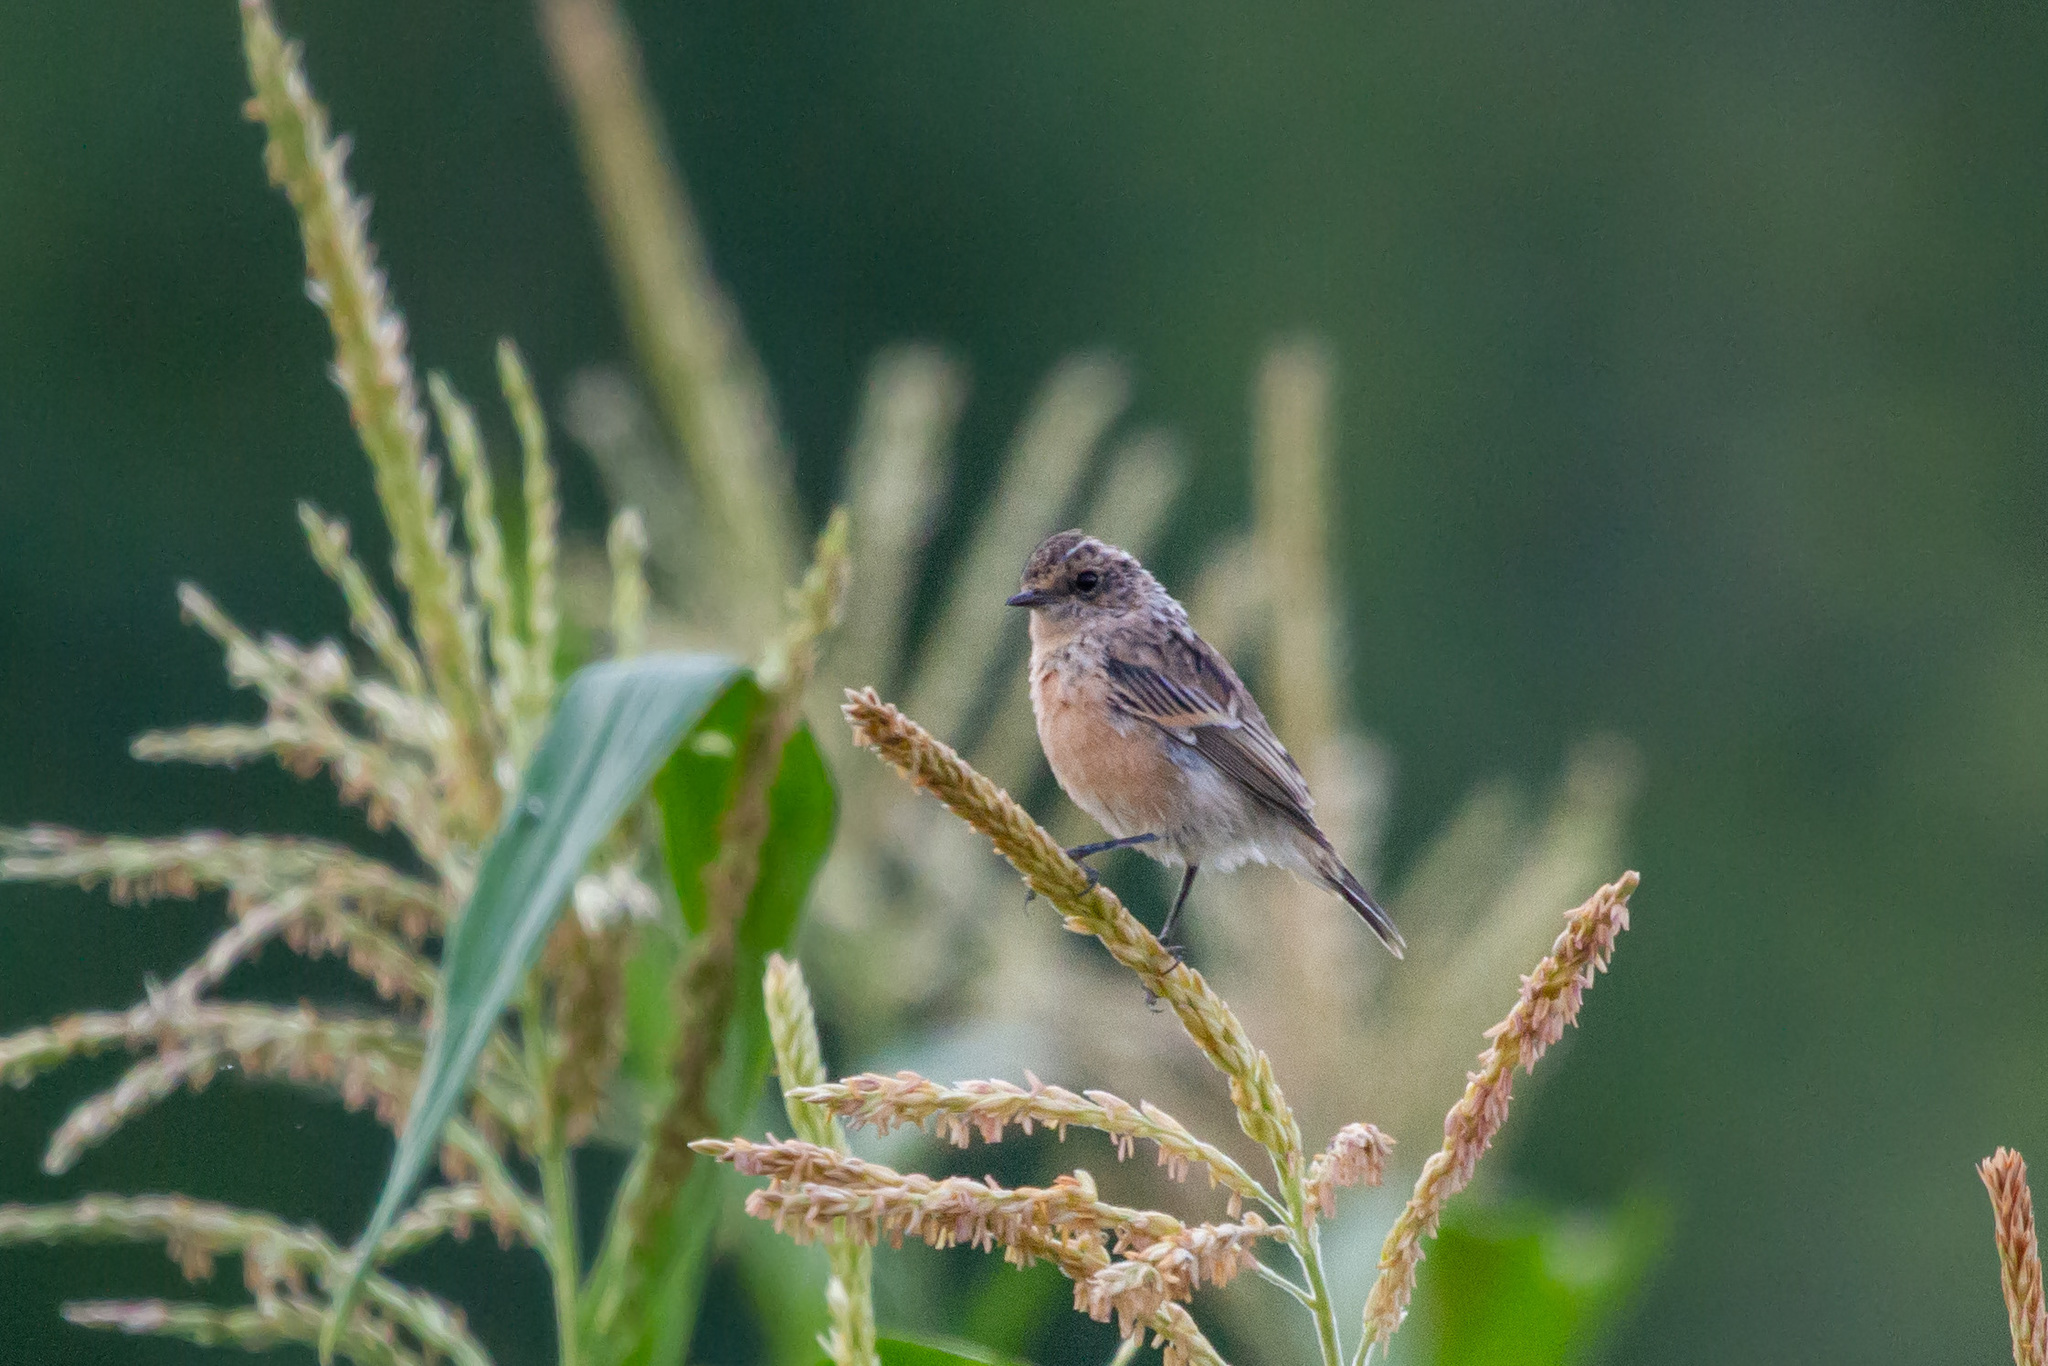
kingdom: Animalia
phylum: Chordata
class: Aves
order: Passeriformes
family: Muscicapidae
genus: Saxicola
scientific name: Saxicola maurus
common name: Siberian stonechat
